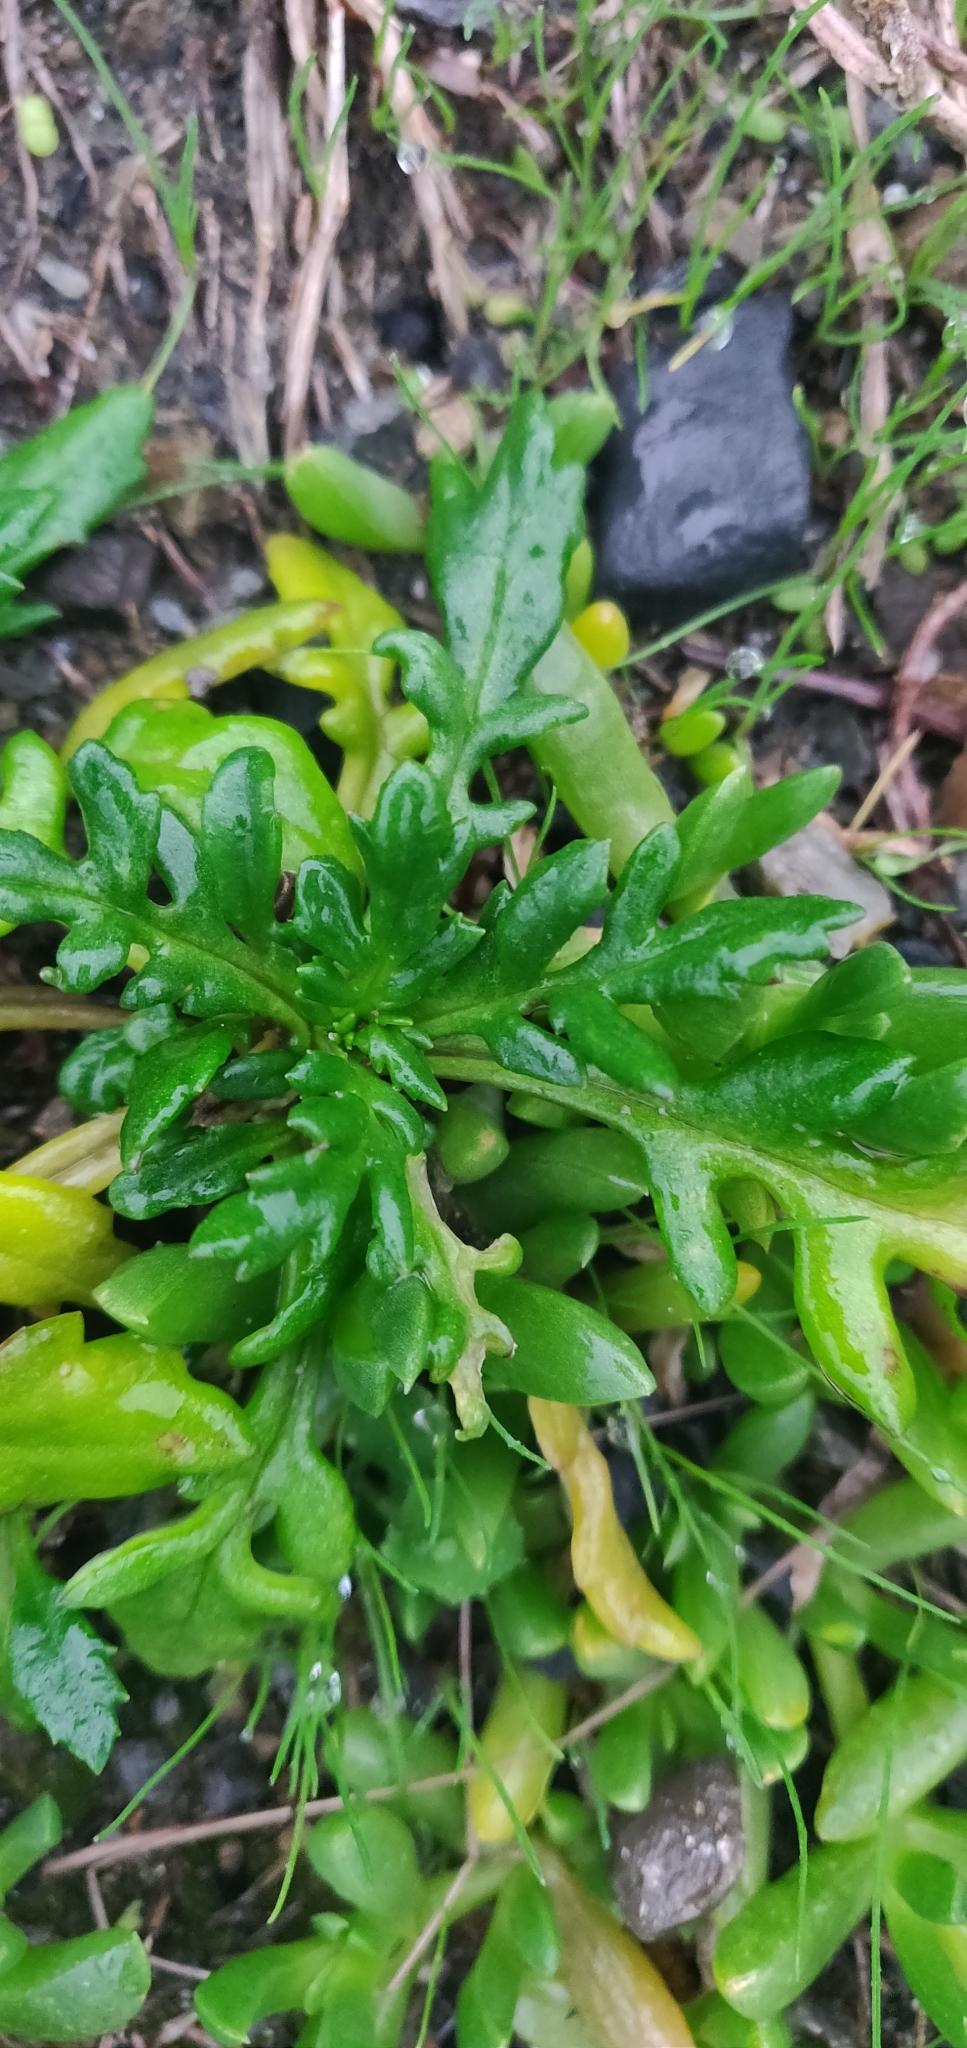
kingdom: Plantae
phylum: Tracheophyta
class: Magnoliopsida
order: Asterales
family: Asteraceae
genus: Senecio
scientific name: Senecio lautus
